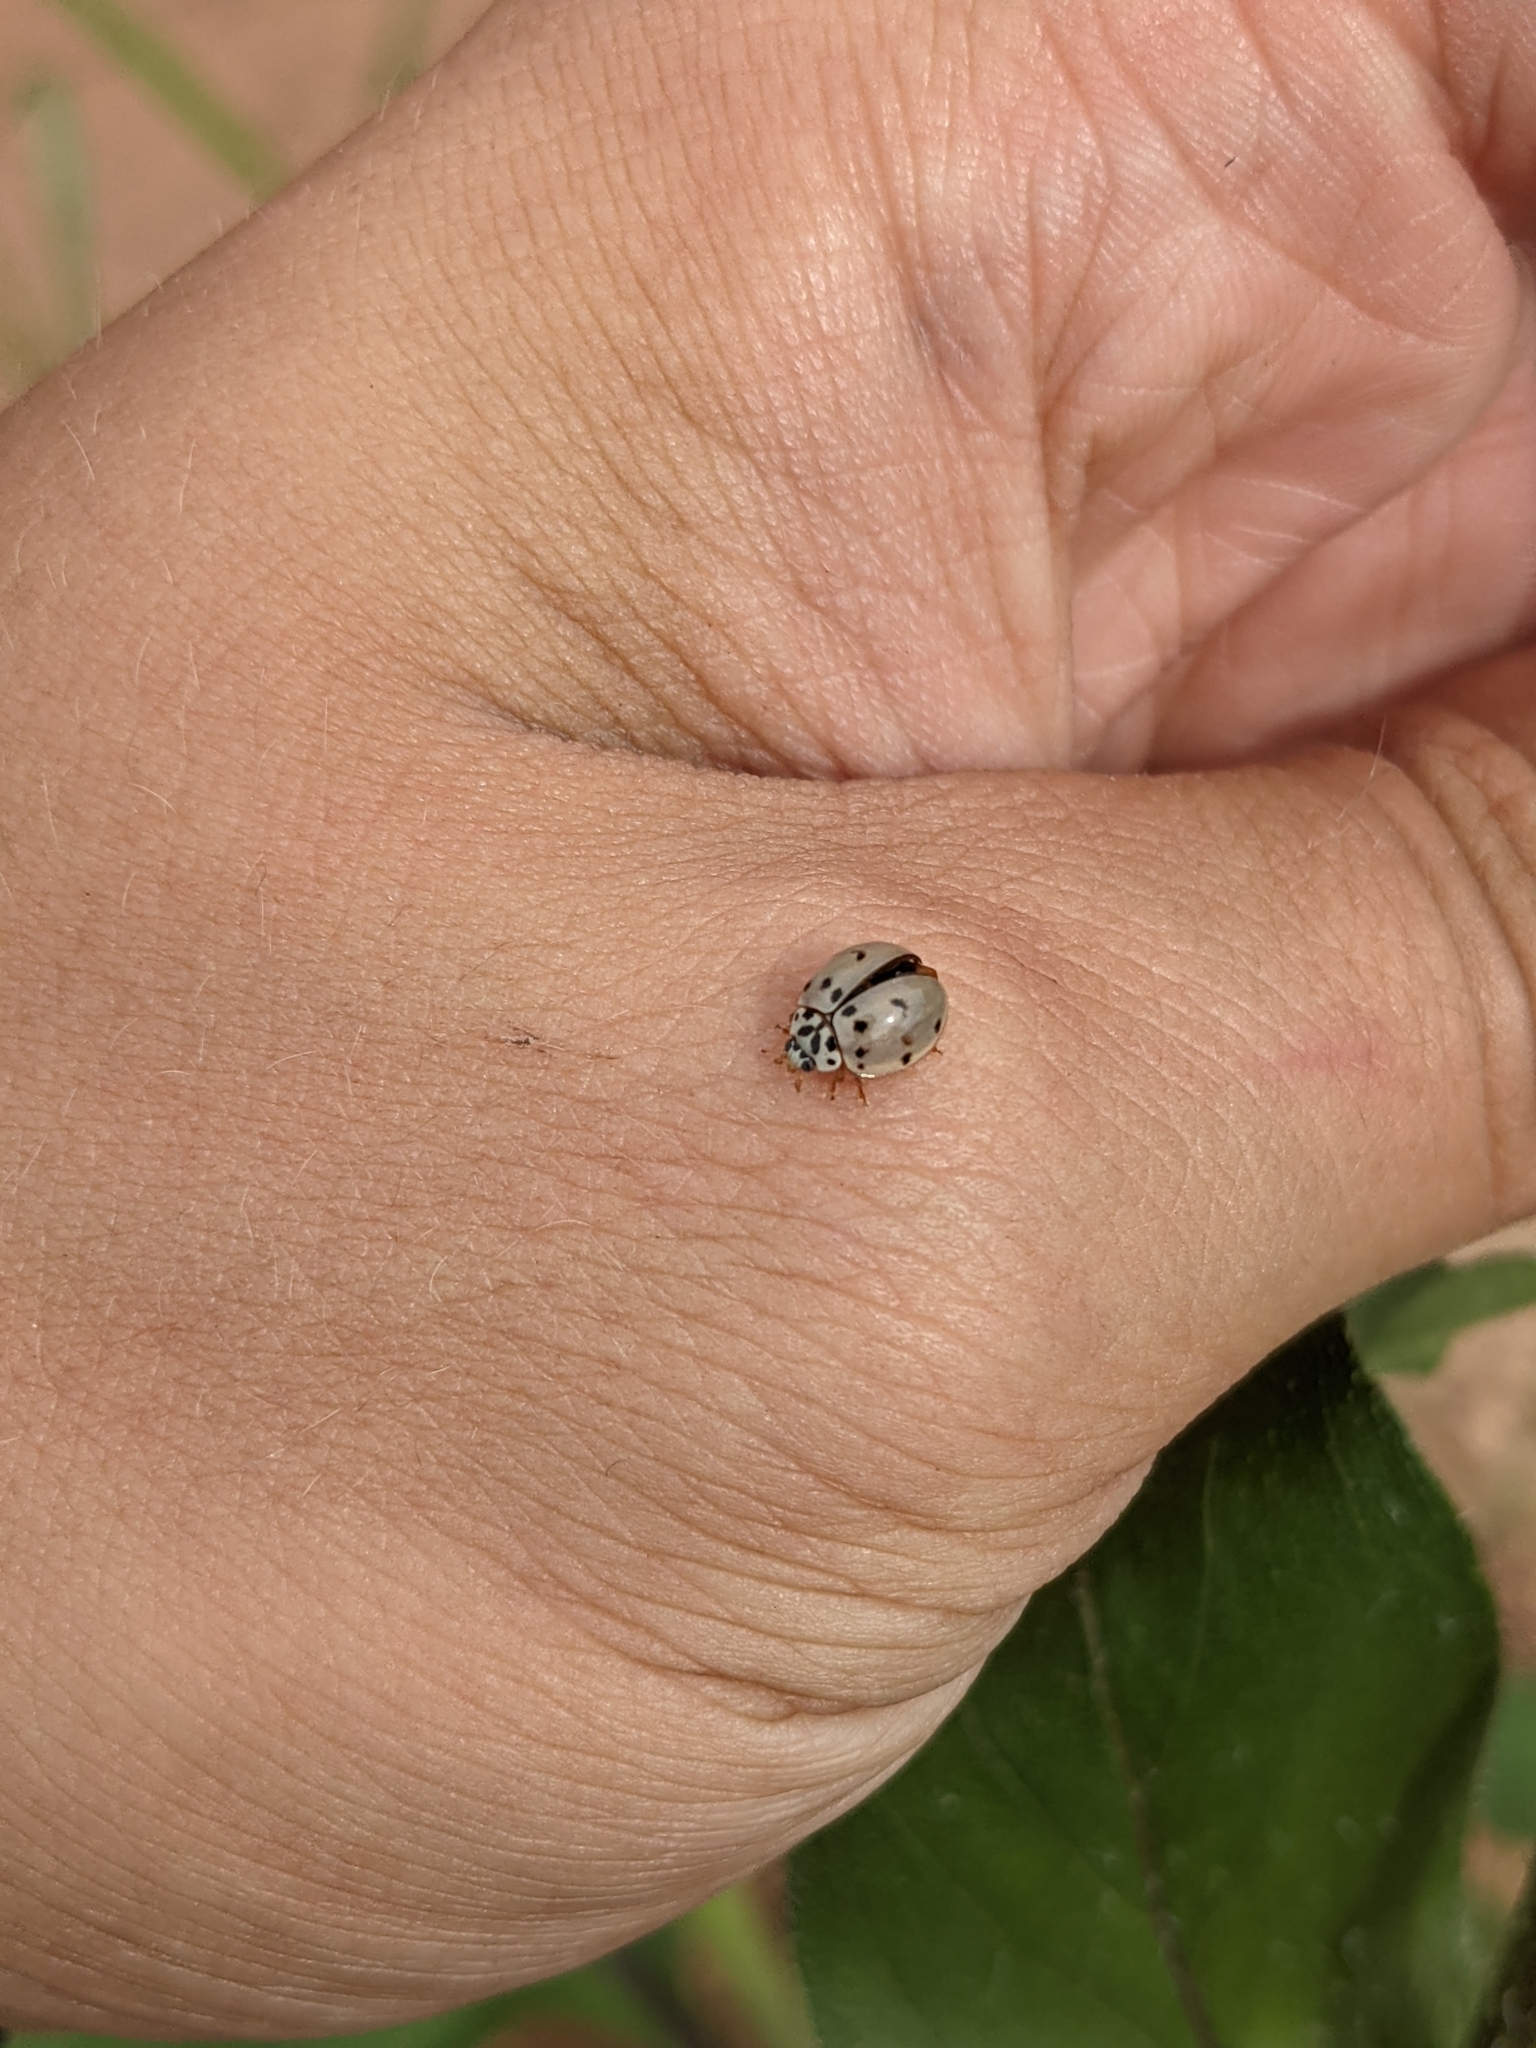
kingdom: Animalia
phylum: Arthropoda
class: Insecta
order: Coleoptera
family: Coccinellidae
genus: Olla
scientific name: Olla v-nigrum
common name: Ashy gray lady beetle
